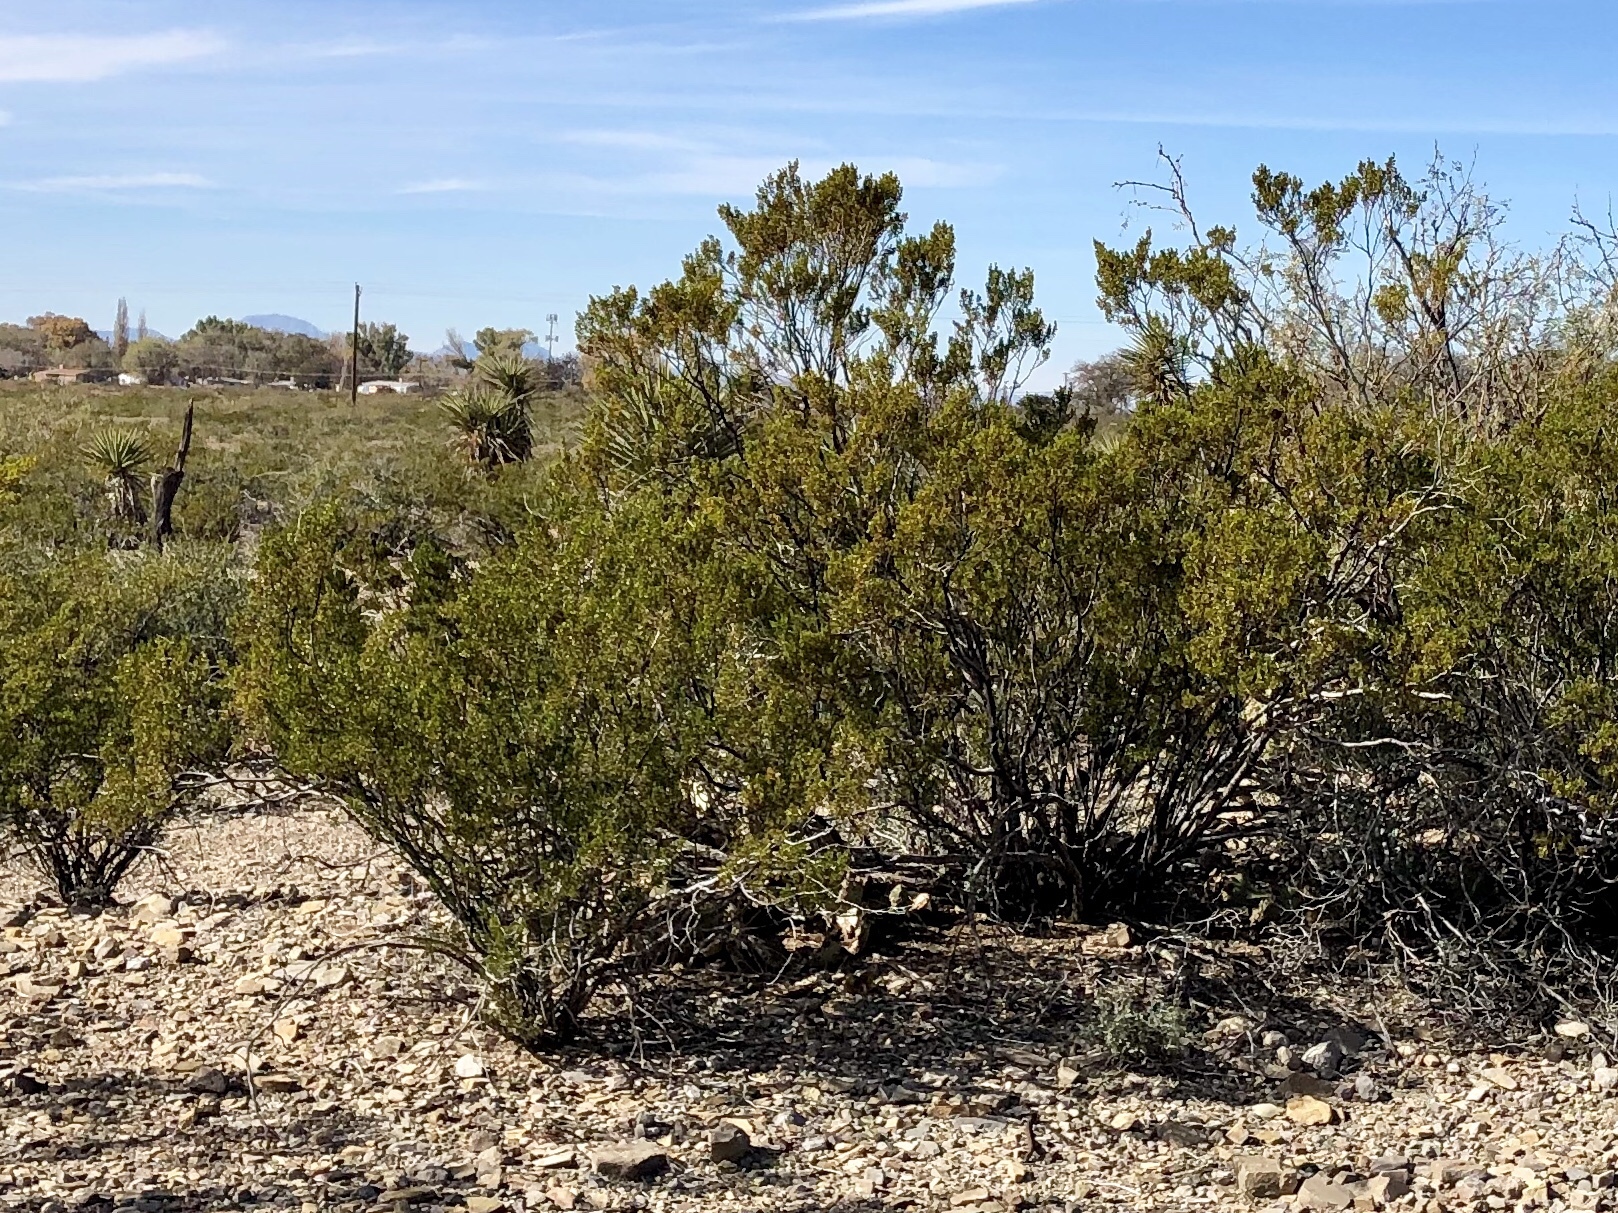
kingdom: Plantae
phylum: Tracheophyta
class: Magnoliopsida
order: Zygophyllales
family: Zygophyllaceae
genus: Larrea
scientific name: Larrea tridentata
